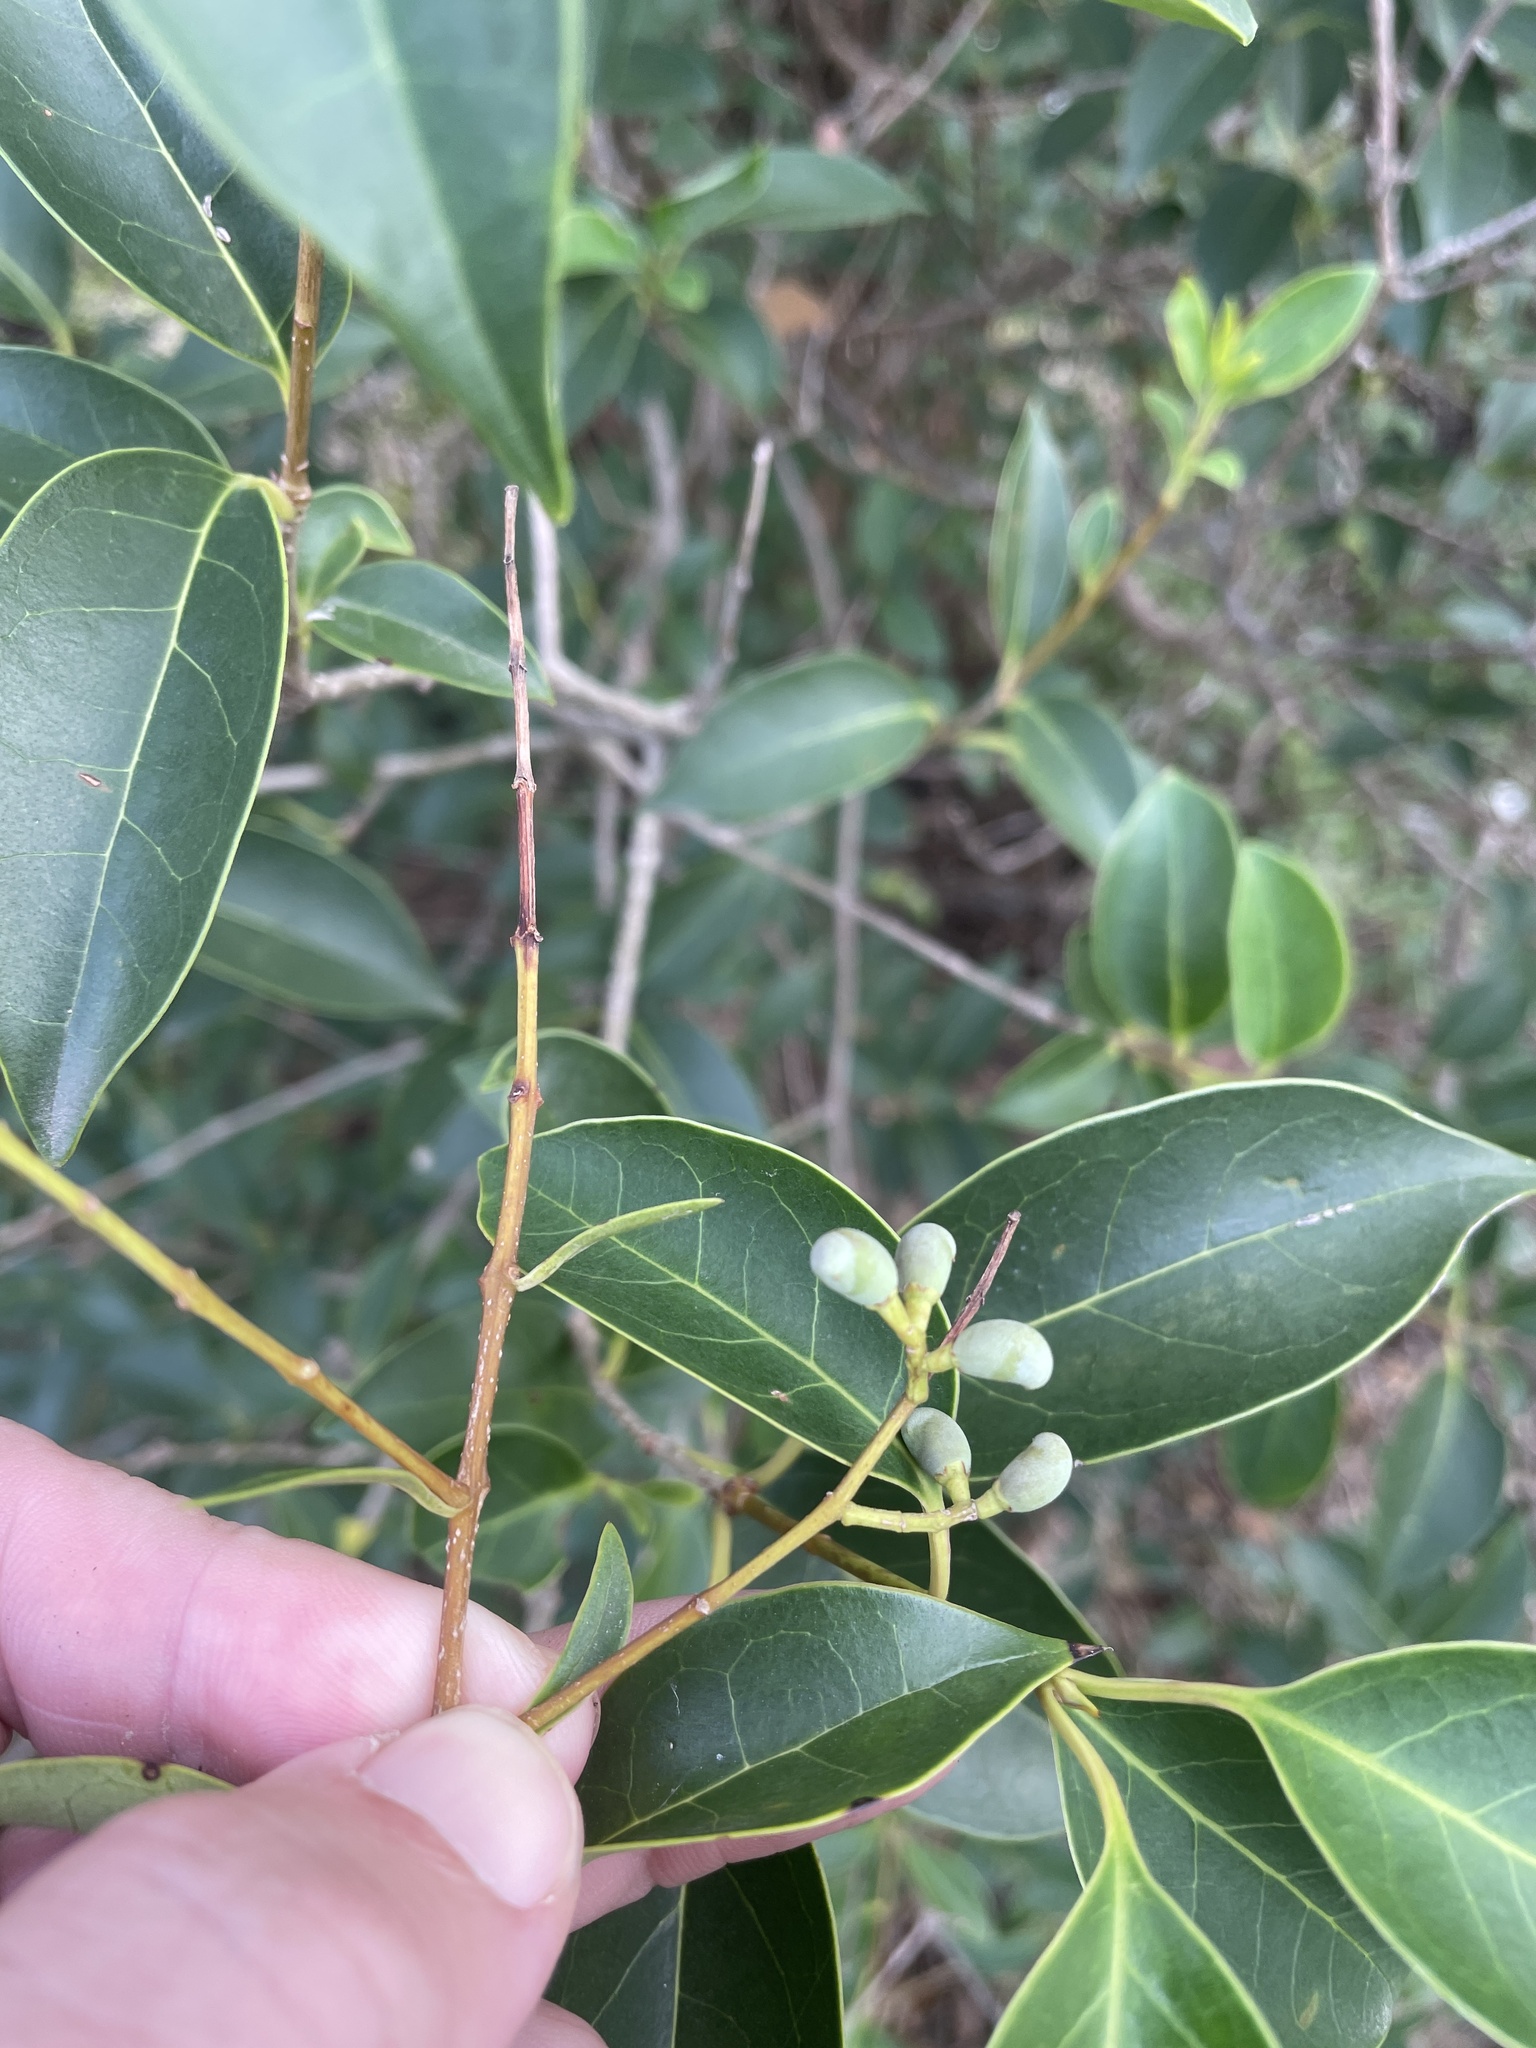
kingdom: Plantae
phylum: Tracheophyta
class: Magnoliopsida
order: Lamiales
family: Oleaceae
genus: Ligustrum
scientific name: Ligustrum lucidum
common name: Glossy privet
